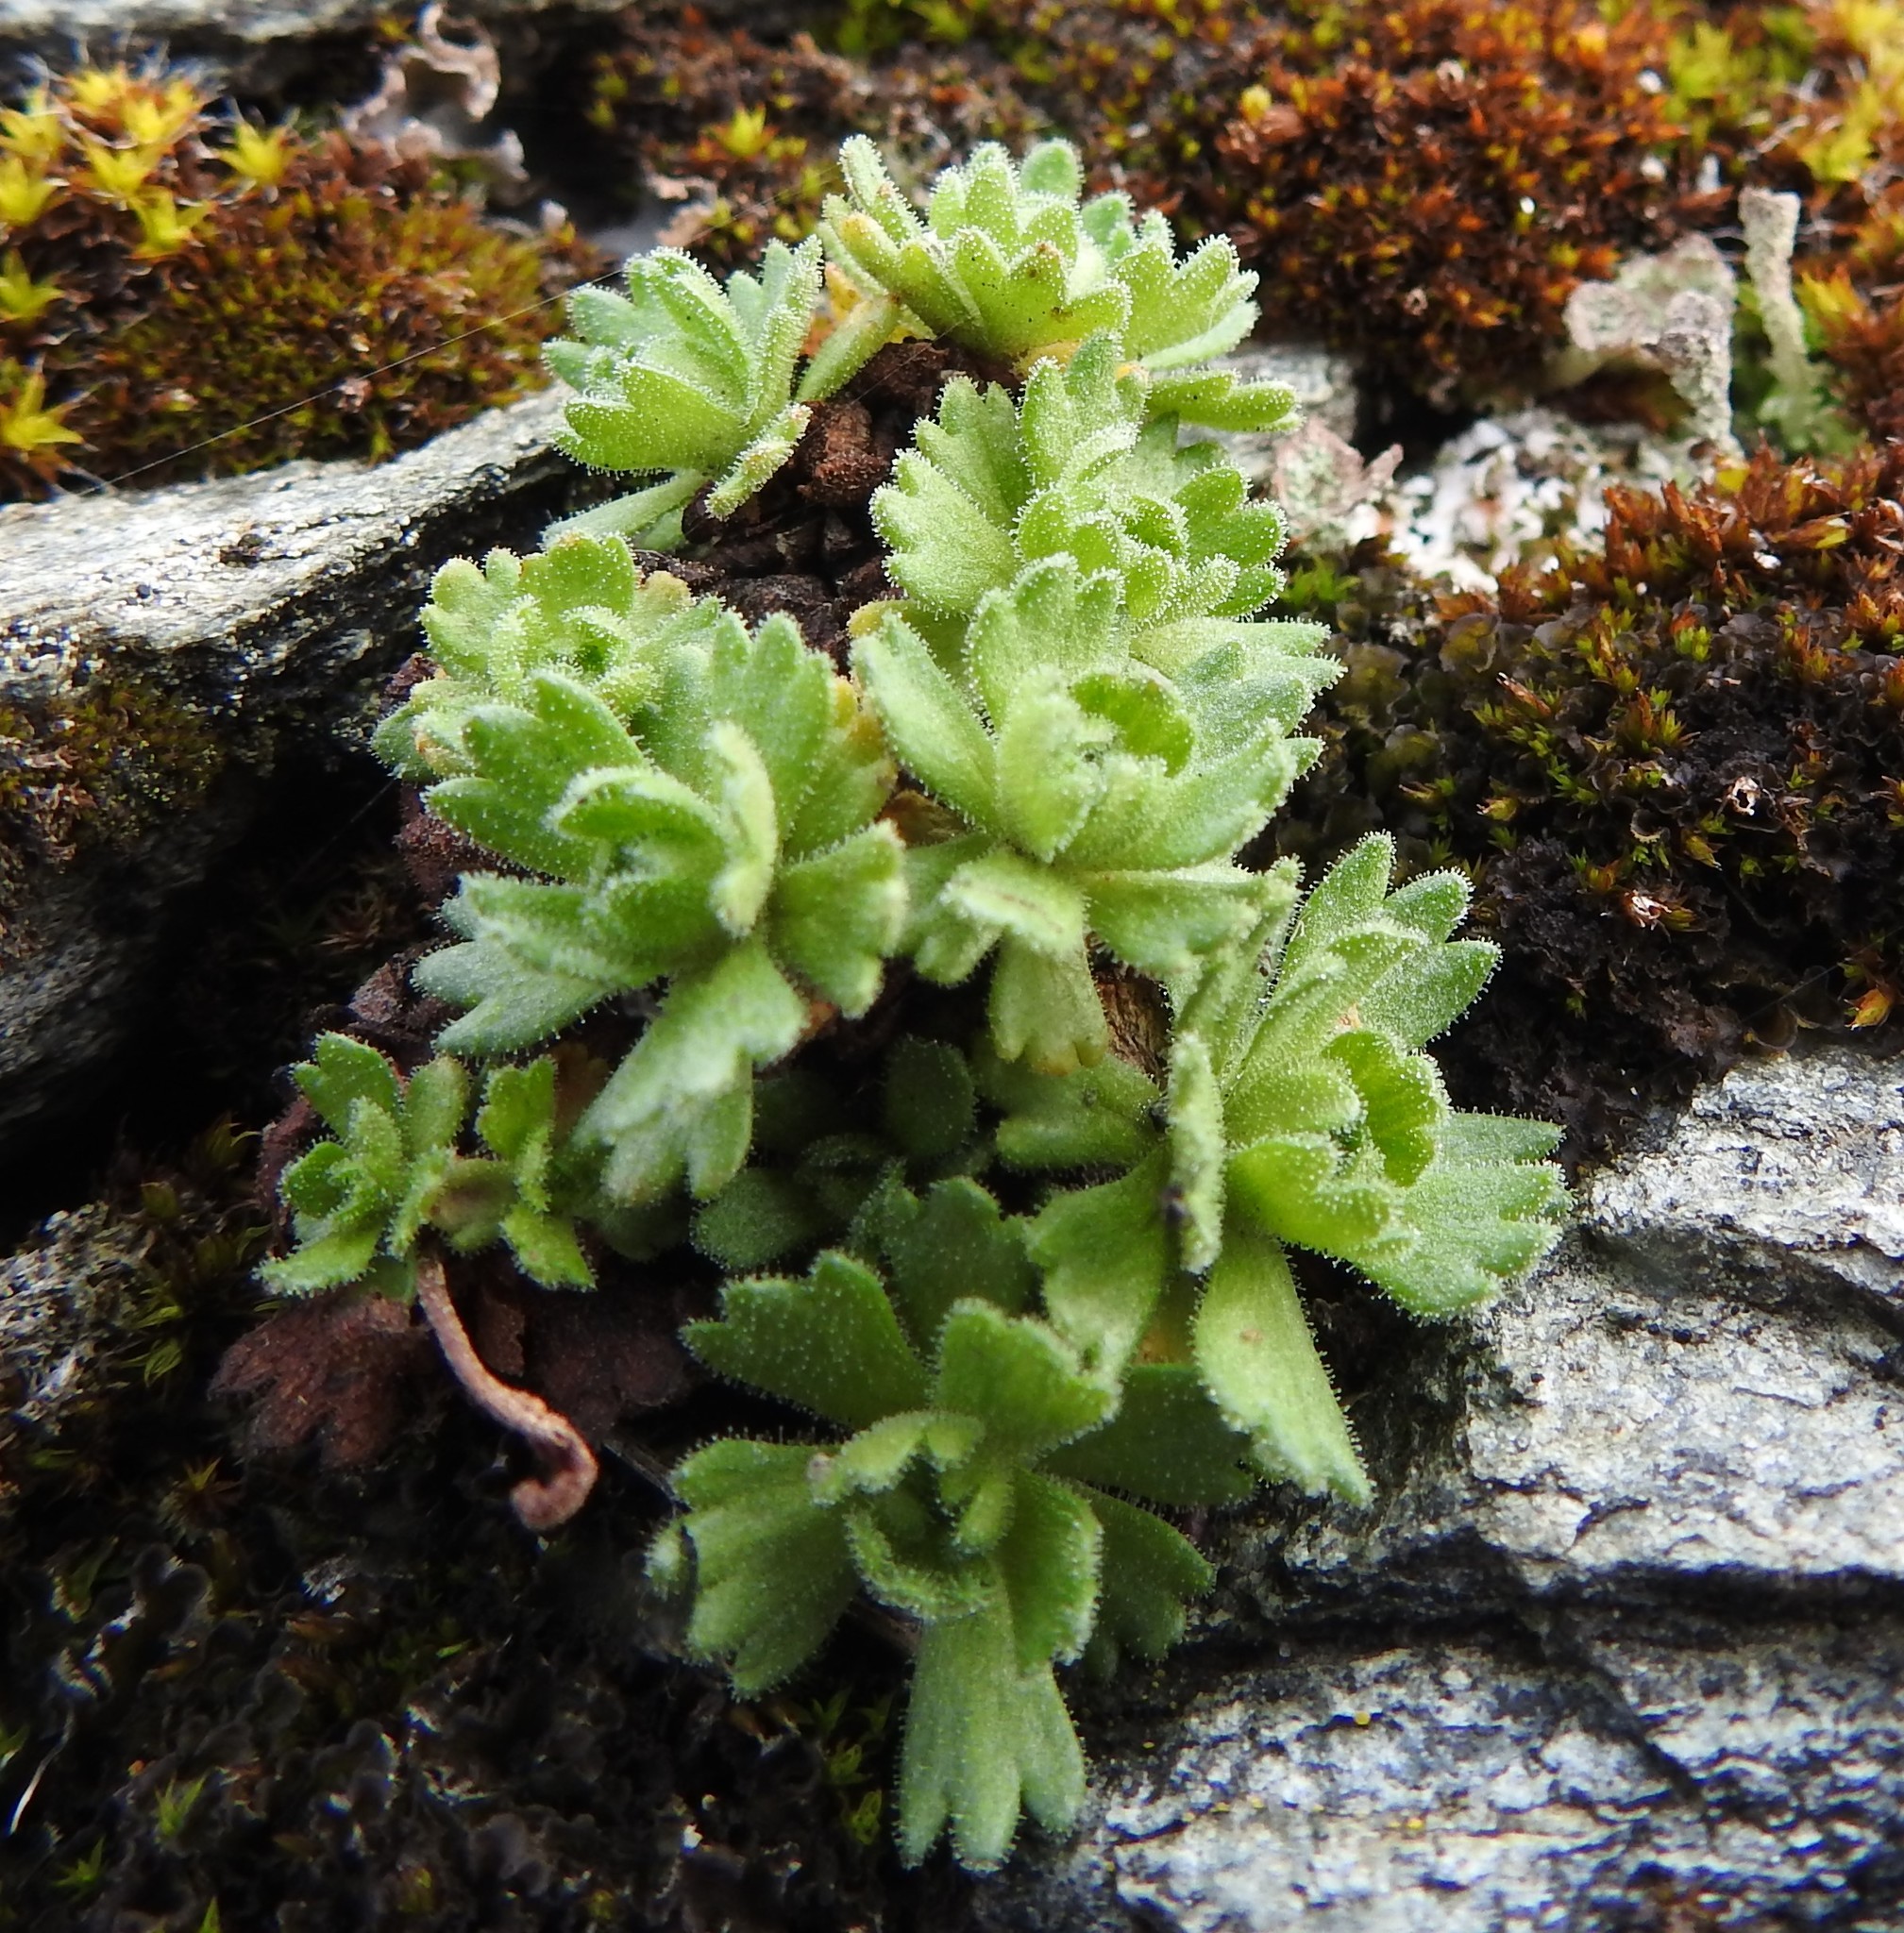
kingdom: Plantae
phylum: Tracheophyta
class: Magnoliopsida
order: Saxifragales
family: Saxifragaceae
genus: Saxifraga
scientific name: Saxifraga magellanica
